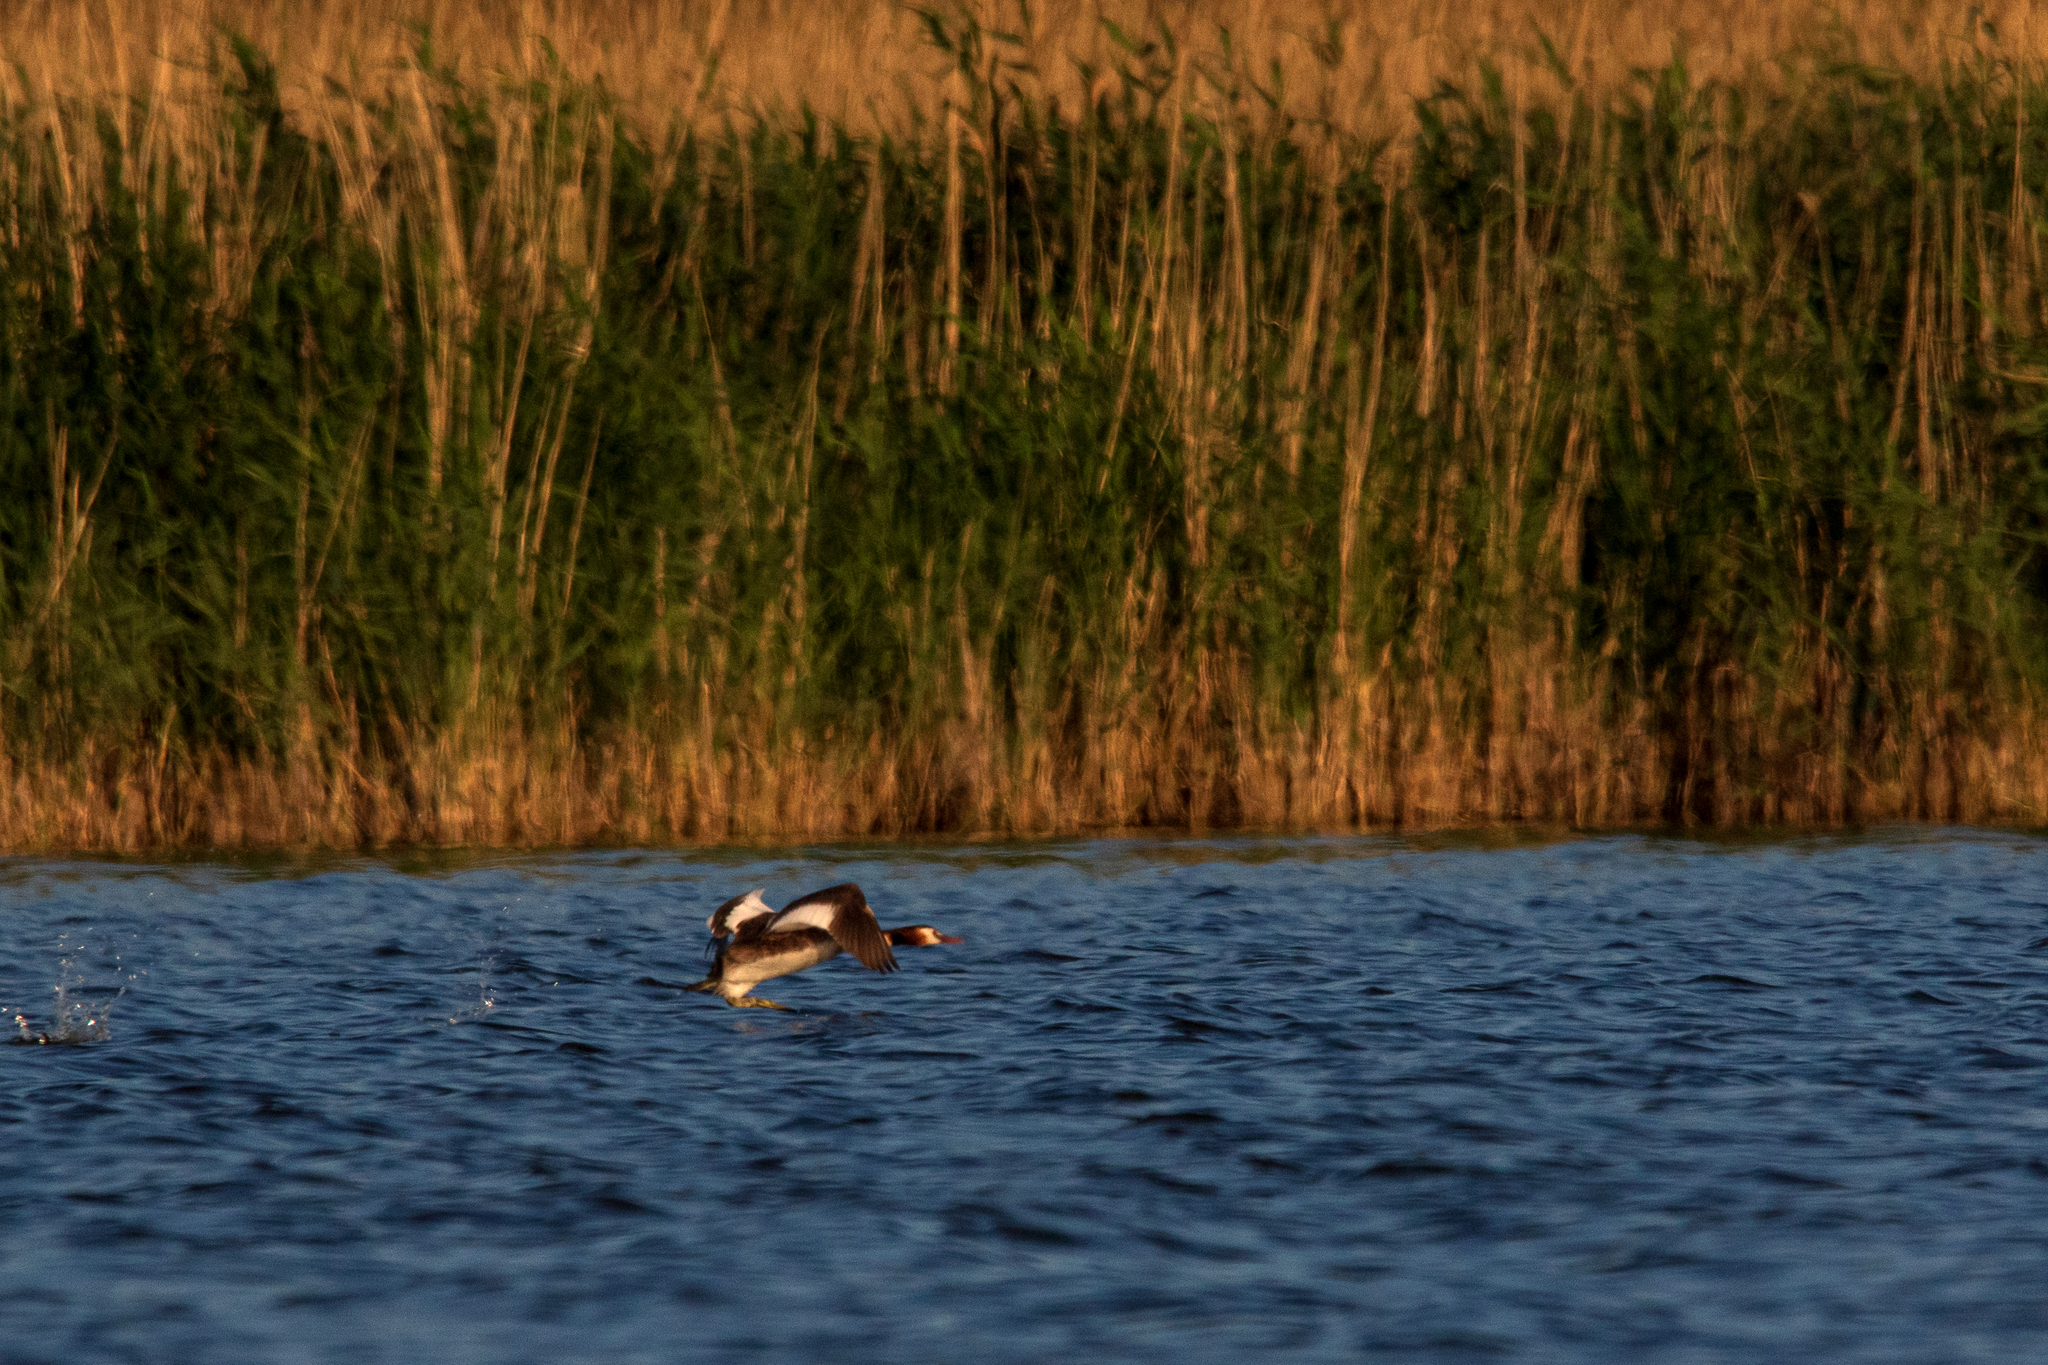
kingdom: Animalia
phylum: Chordata
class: Aves
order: Podicipediformes
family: Podicipedidae
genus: Podiceps
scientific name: Podiceps cristatus
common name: Great crested grebe
